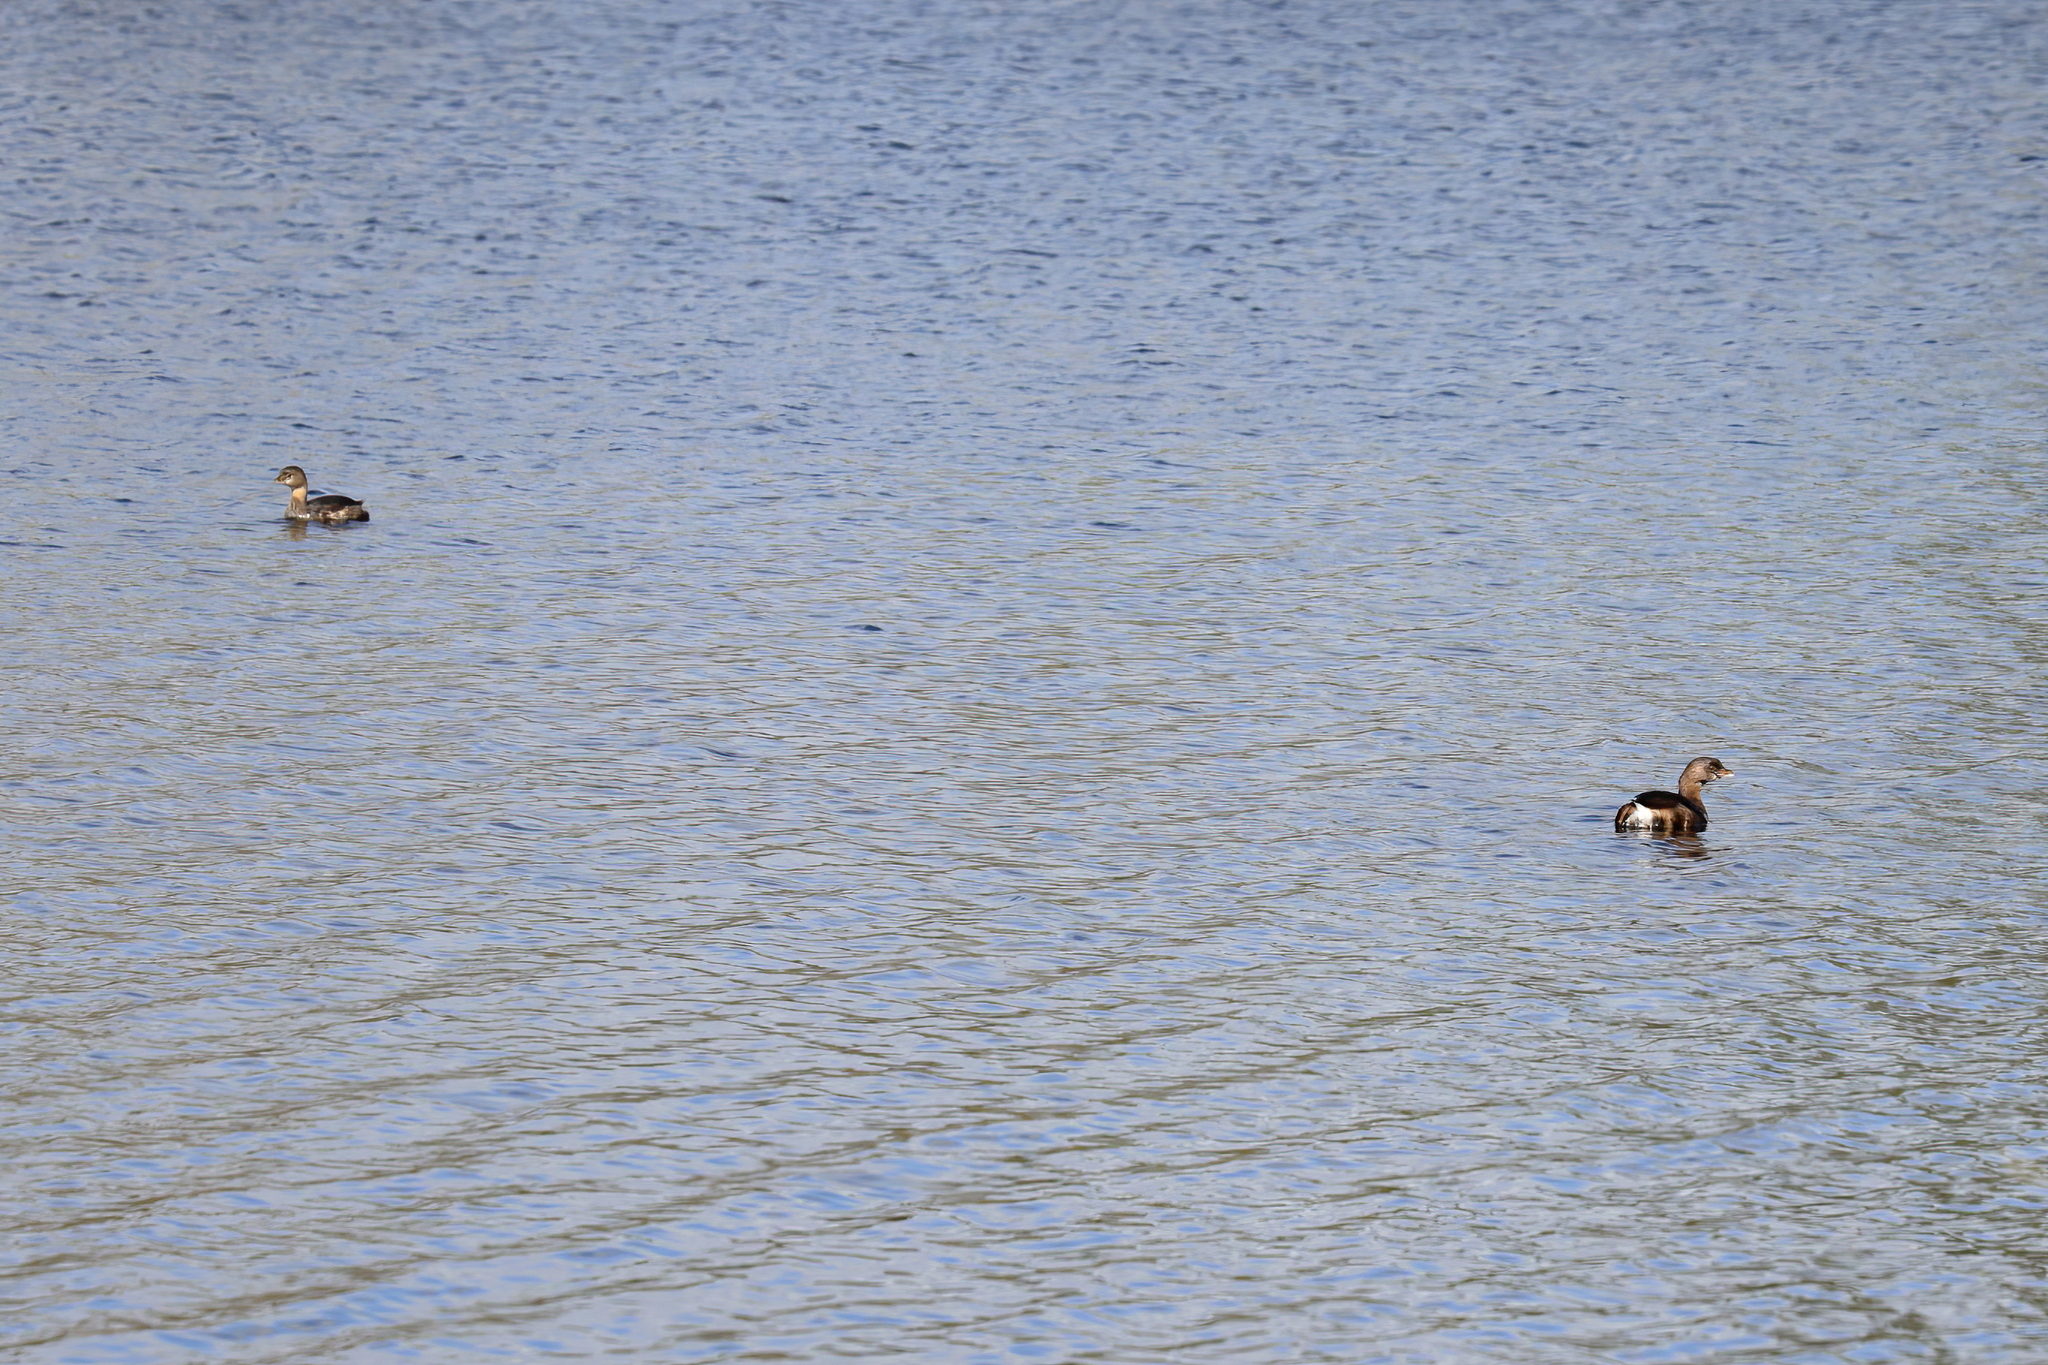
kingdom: Animalia
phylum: Chordata
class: Aves
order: Podicipediformes
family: Podicipedidae
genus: Podilymbus
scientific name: Podilymbus podiceps
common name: Pied-billed grebe
